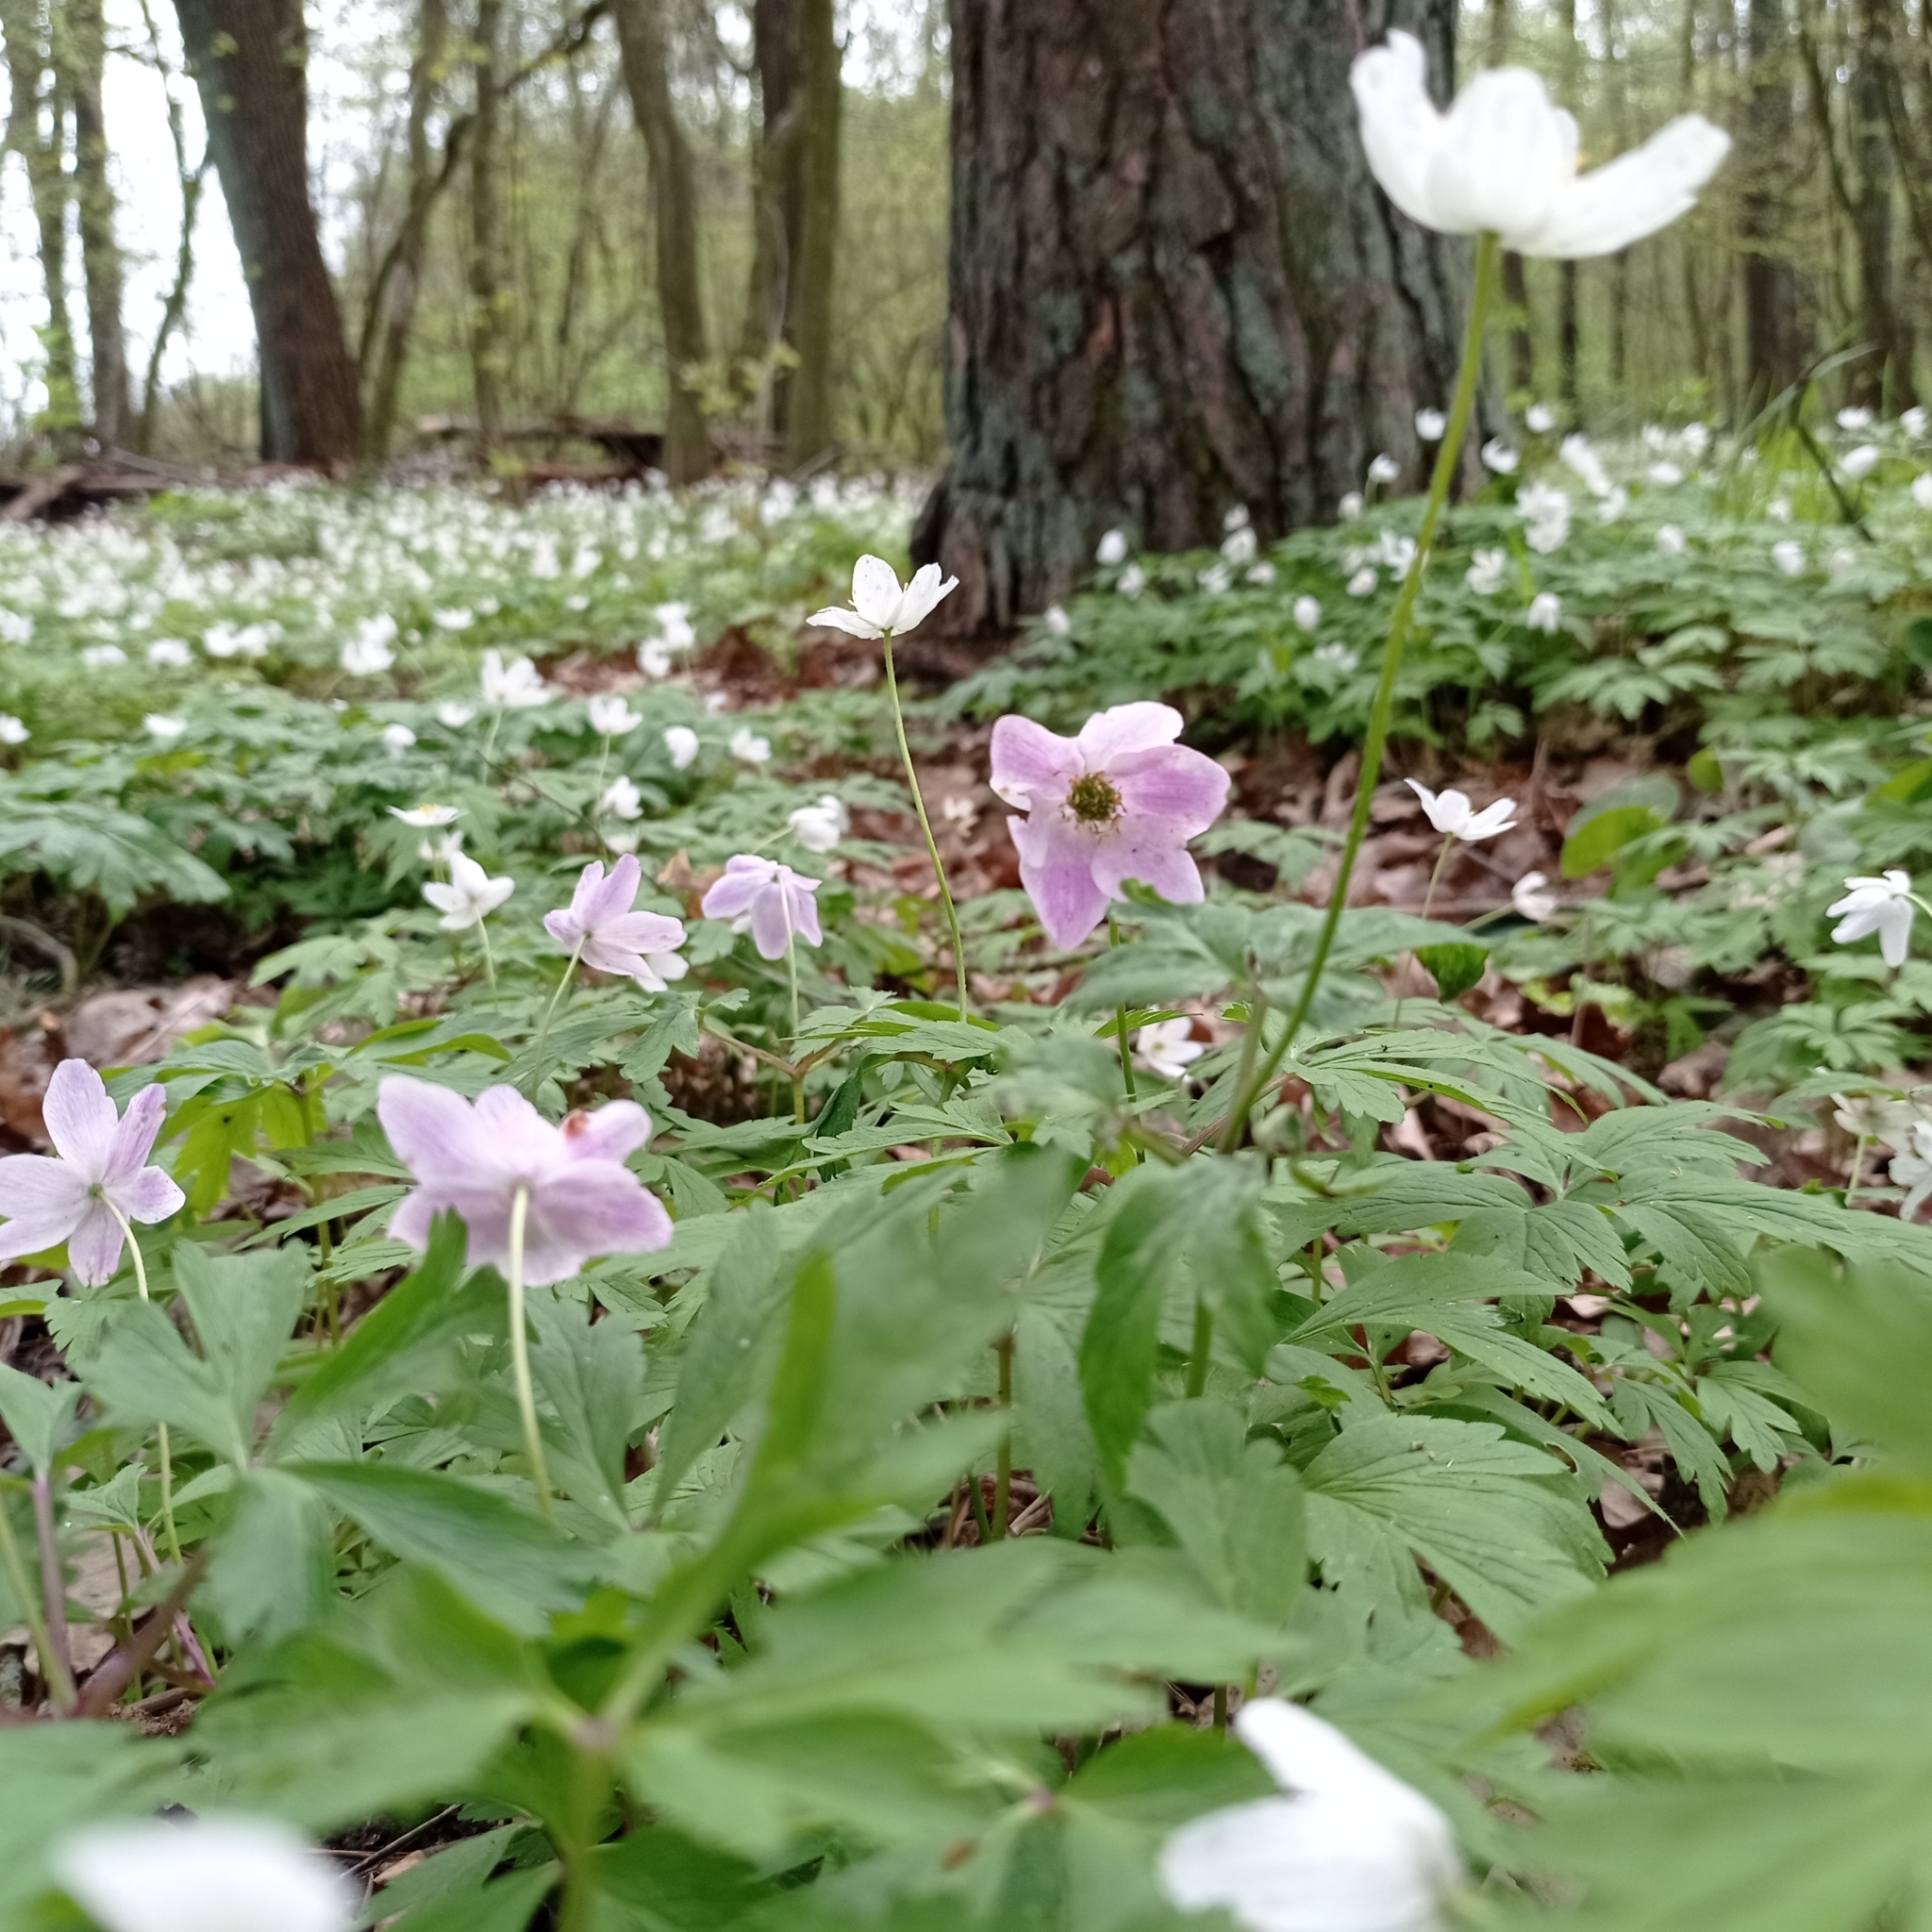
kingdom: Plantae
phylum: Tracheophyta
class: Magnoliopsida
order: Ranunculales
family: Ranunculaceae
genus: Anemone
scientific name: Anemone nemorosa
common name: Wood anemone
